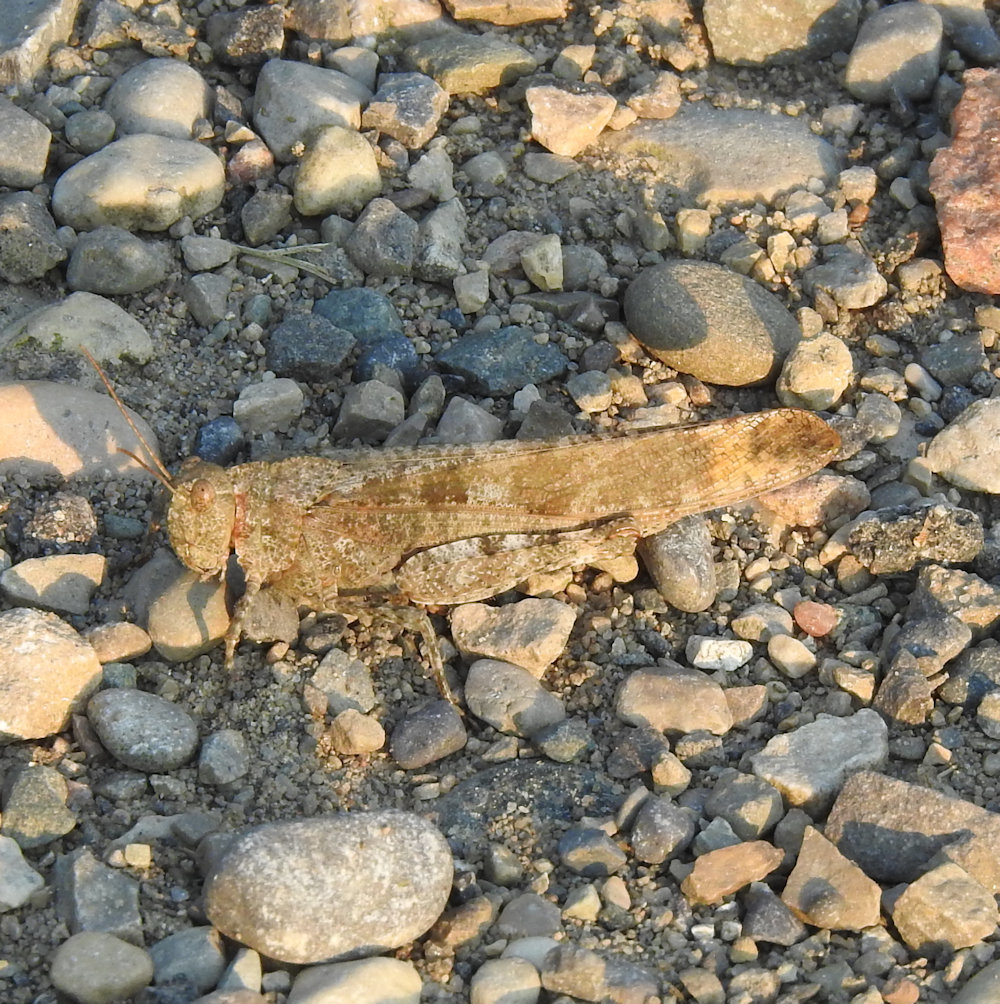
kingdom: Animalia
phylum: Arthropoda
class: Insecta
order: Orthoptera
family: Acrididae
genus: Dissosteira
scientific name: Dissosteira carolina
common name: Carolina grasshopper
